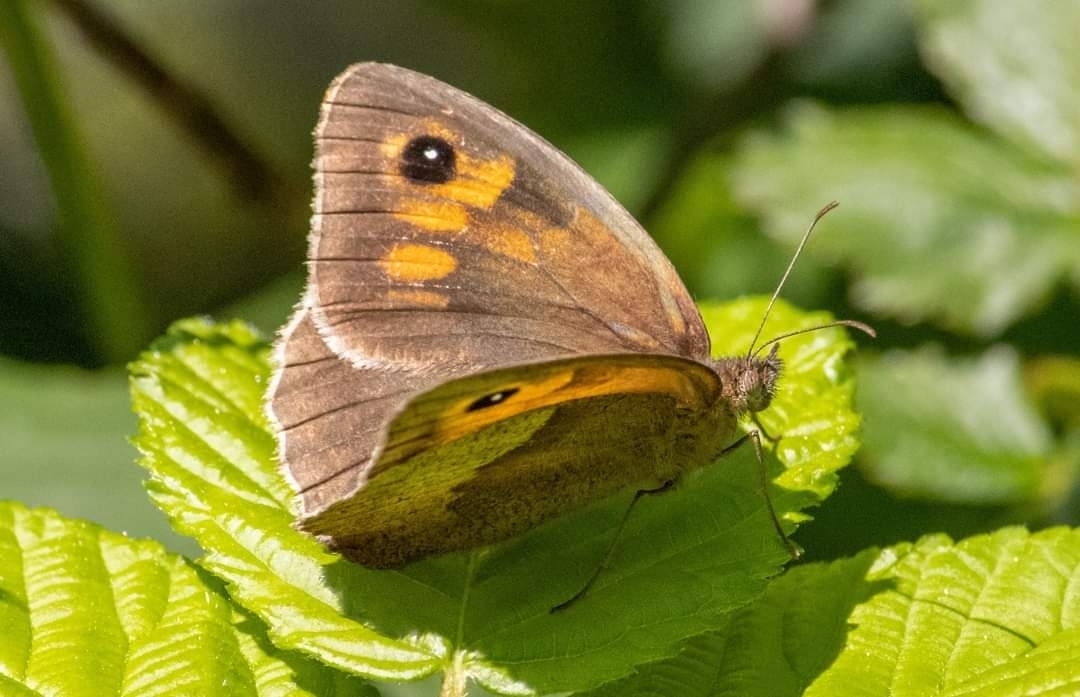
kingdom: Animalia
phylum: Arthropoda
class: Insecta
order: Lepidoptera
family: Nymphalidae
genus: Maniola
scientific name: Maniola jurtina
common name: Meadow brown
